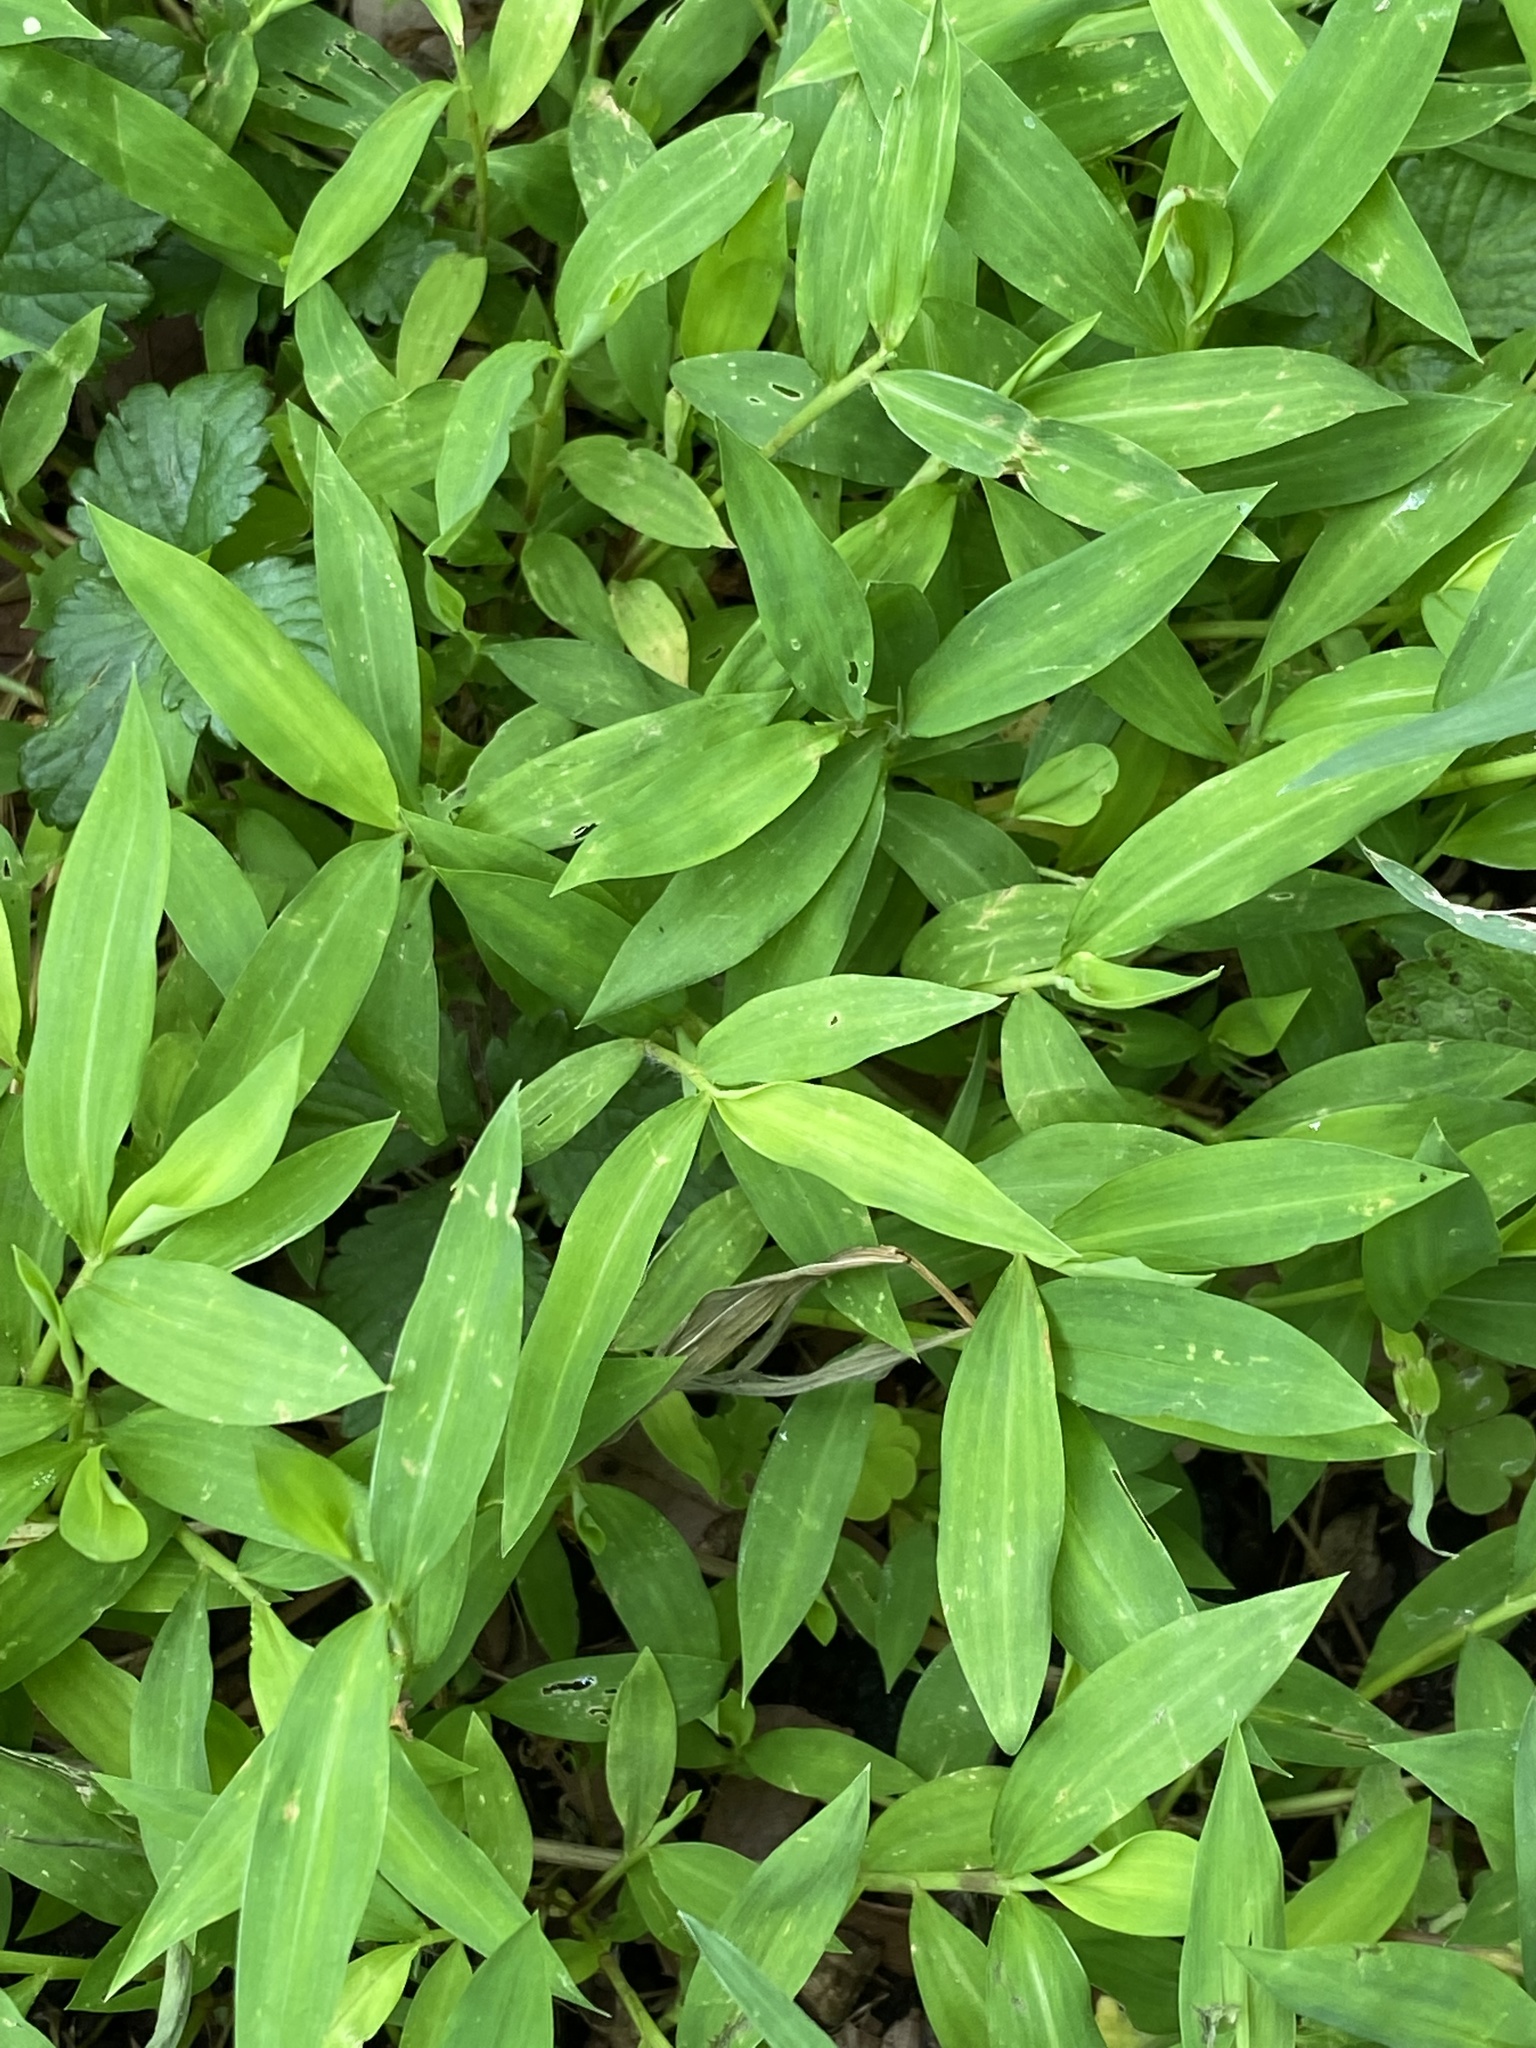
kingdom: Plantae
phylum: Tracheophyta
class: Liliopsida
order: Poales
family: Poaceae
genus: Microstegium
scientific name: Microstegium vimineum
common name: Japanese stiltgrass
